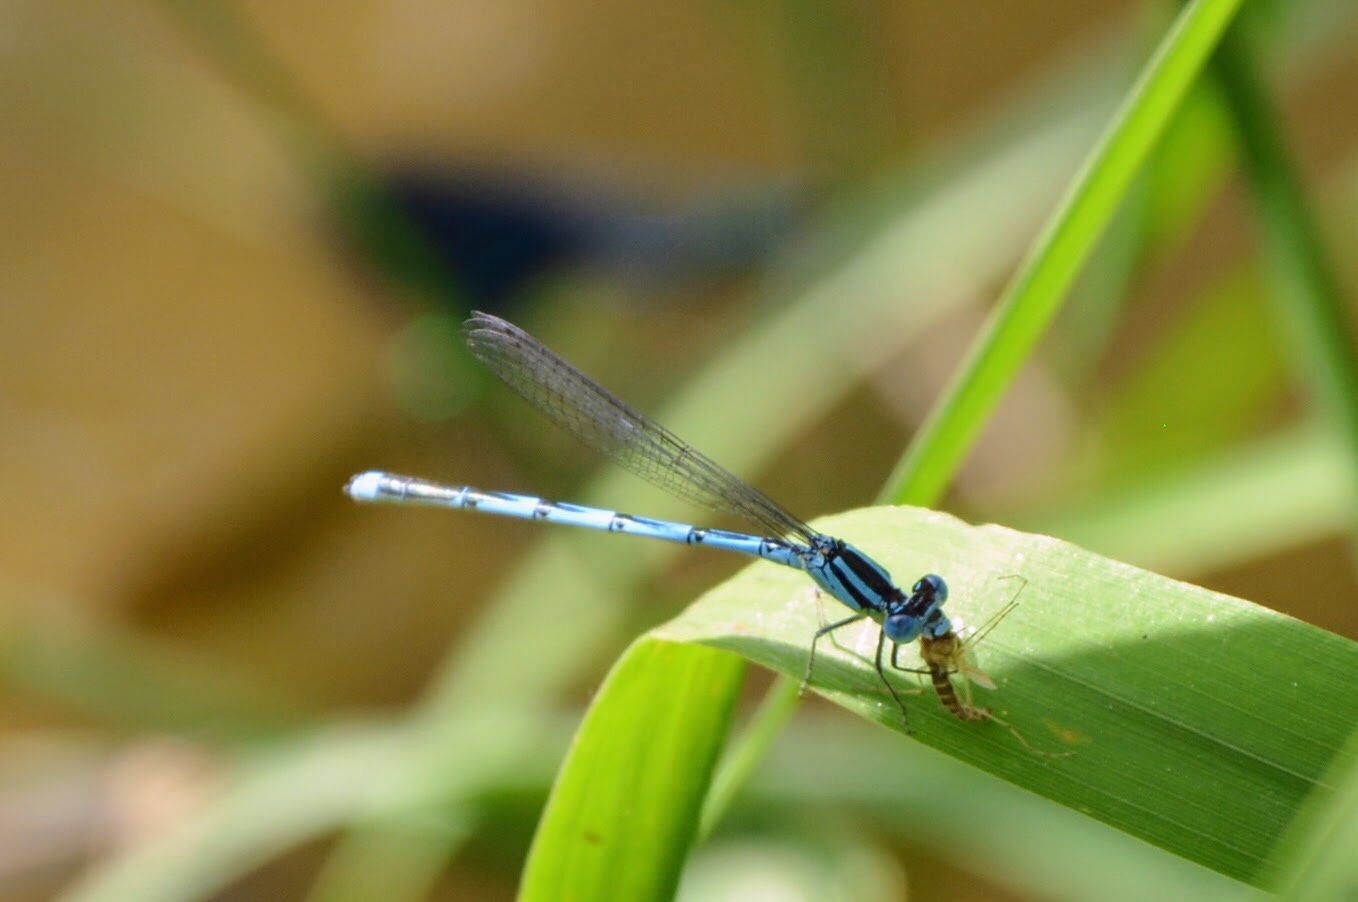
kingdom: Animalia
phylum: Arthropoda
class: Insecta
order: Odonata
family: Coenagrionidae
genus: Erythromma
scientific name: Erythromma lindenii
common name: Blue-eye
